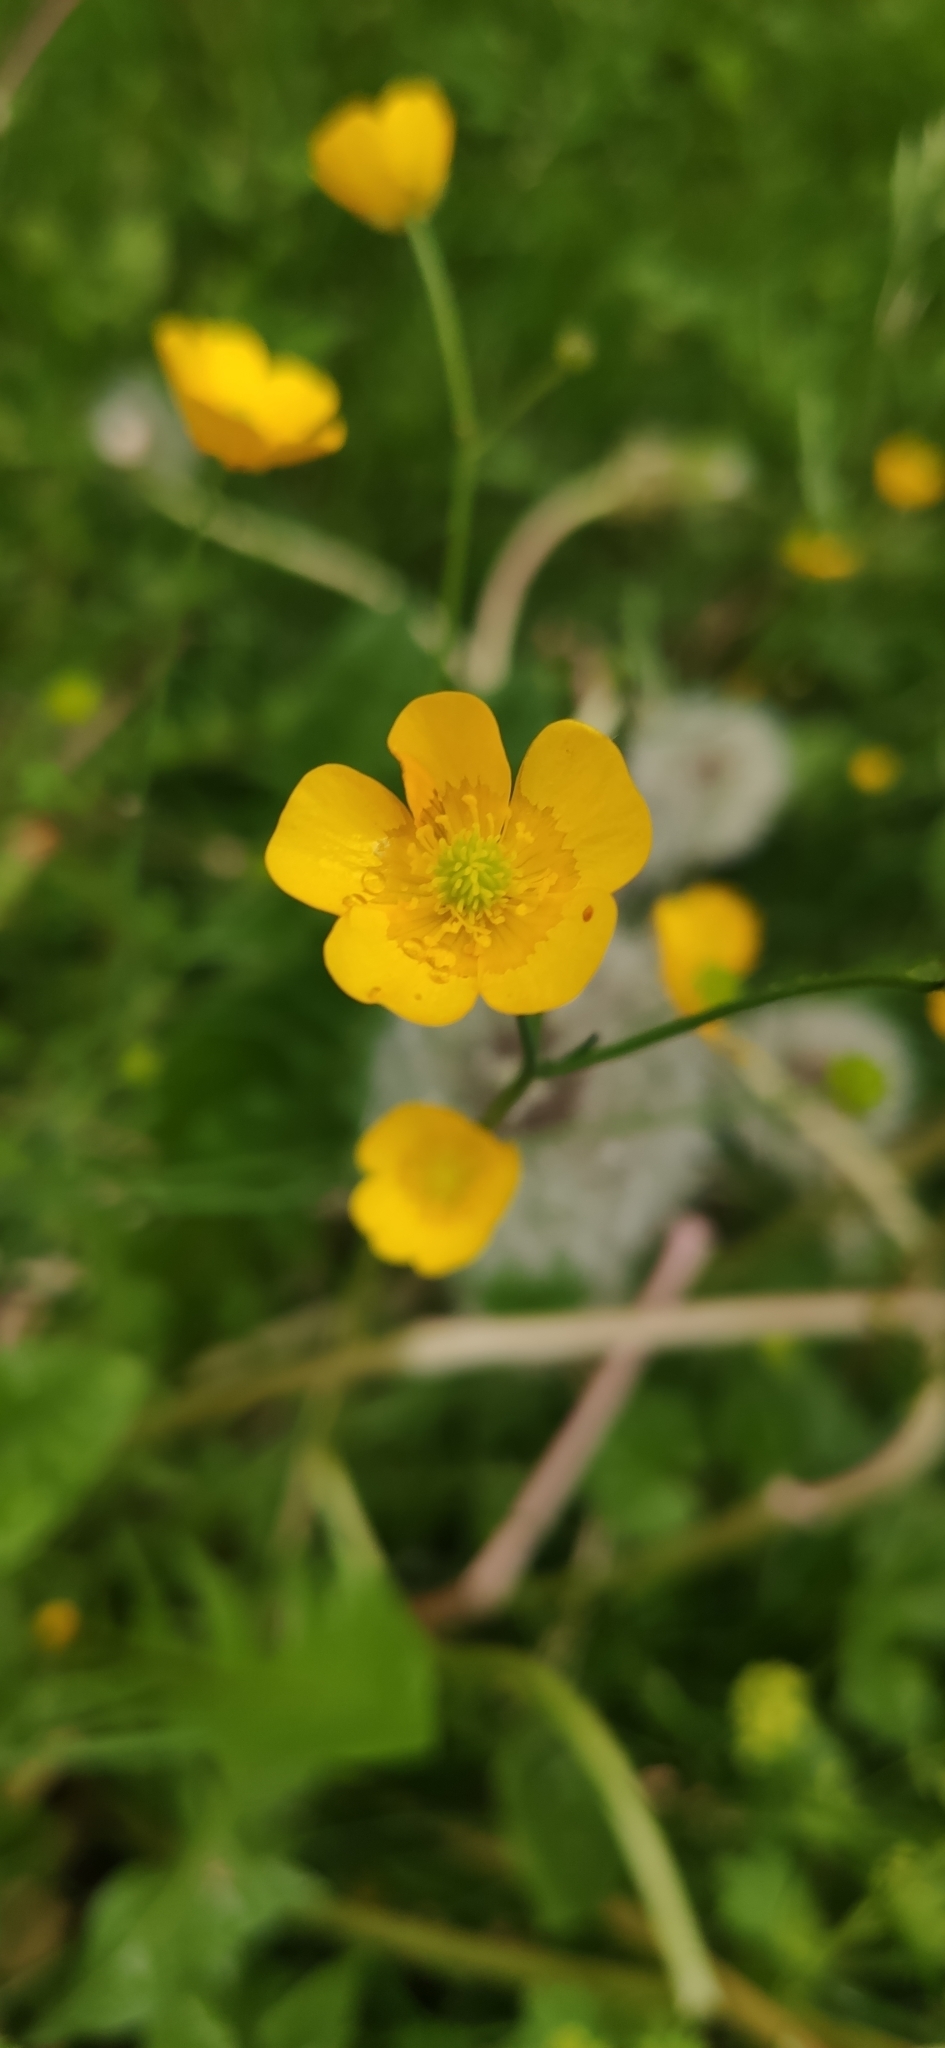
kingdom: Plantae
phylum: Tracheophyta
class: Magnoliopsida
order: Ranunculales
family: Ranunculaceae
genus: Ranunculus
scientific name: Ranunculus acris
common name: Meadow buttercup
